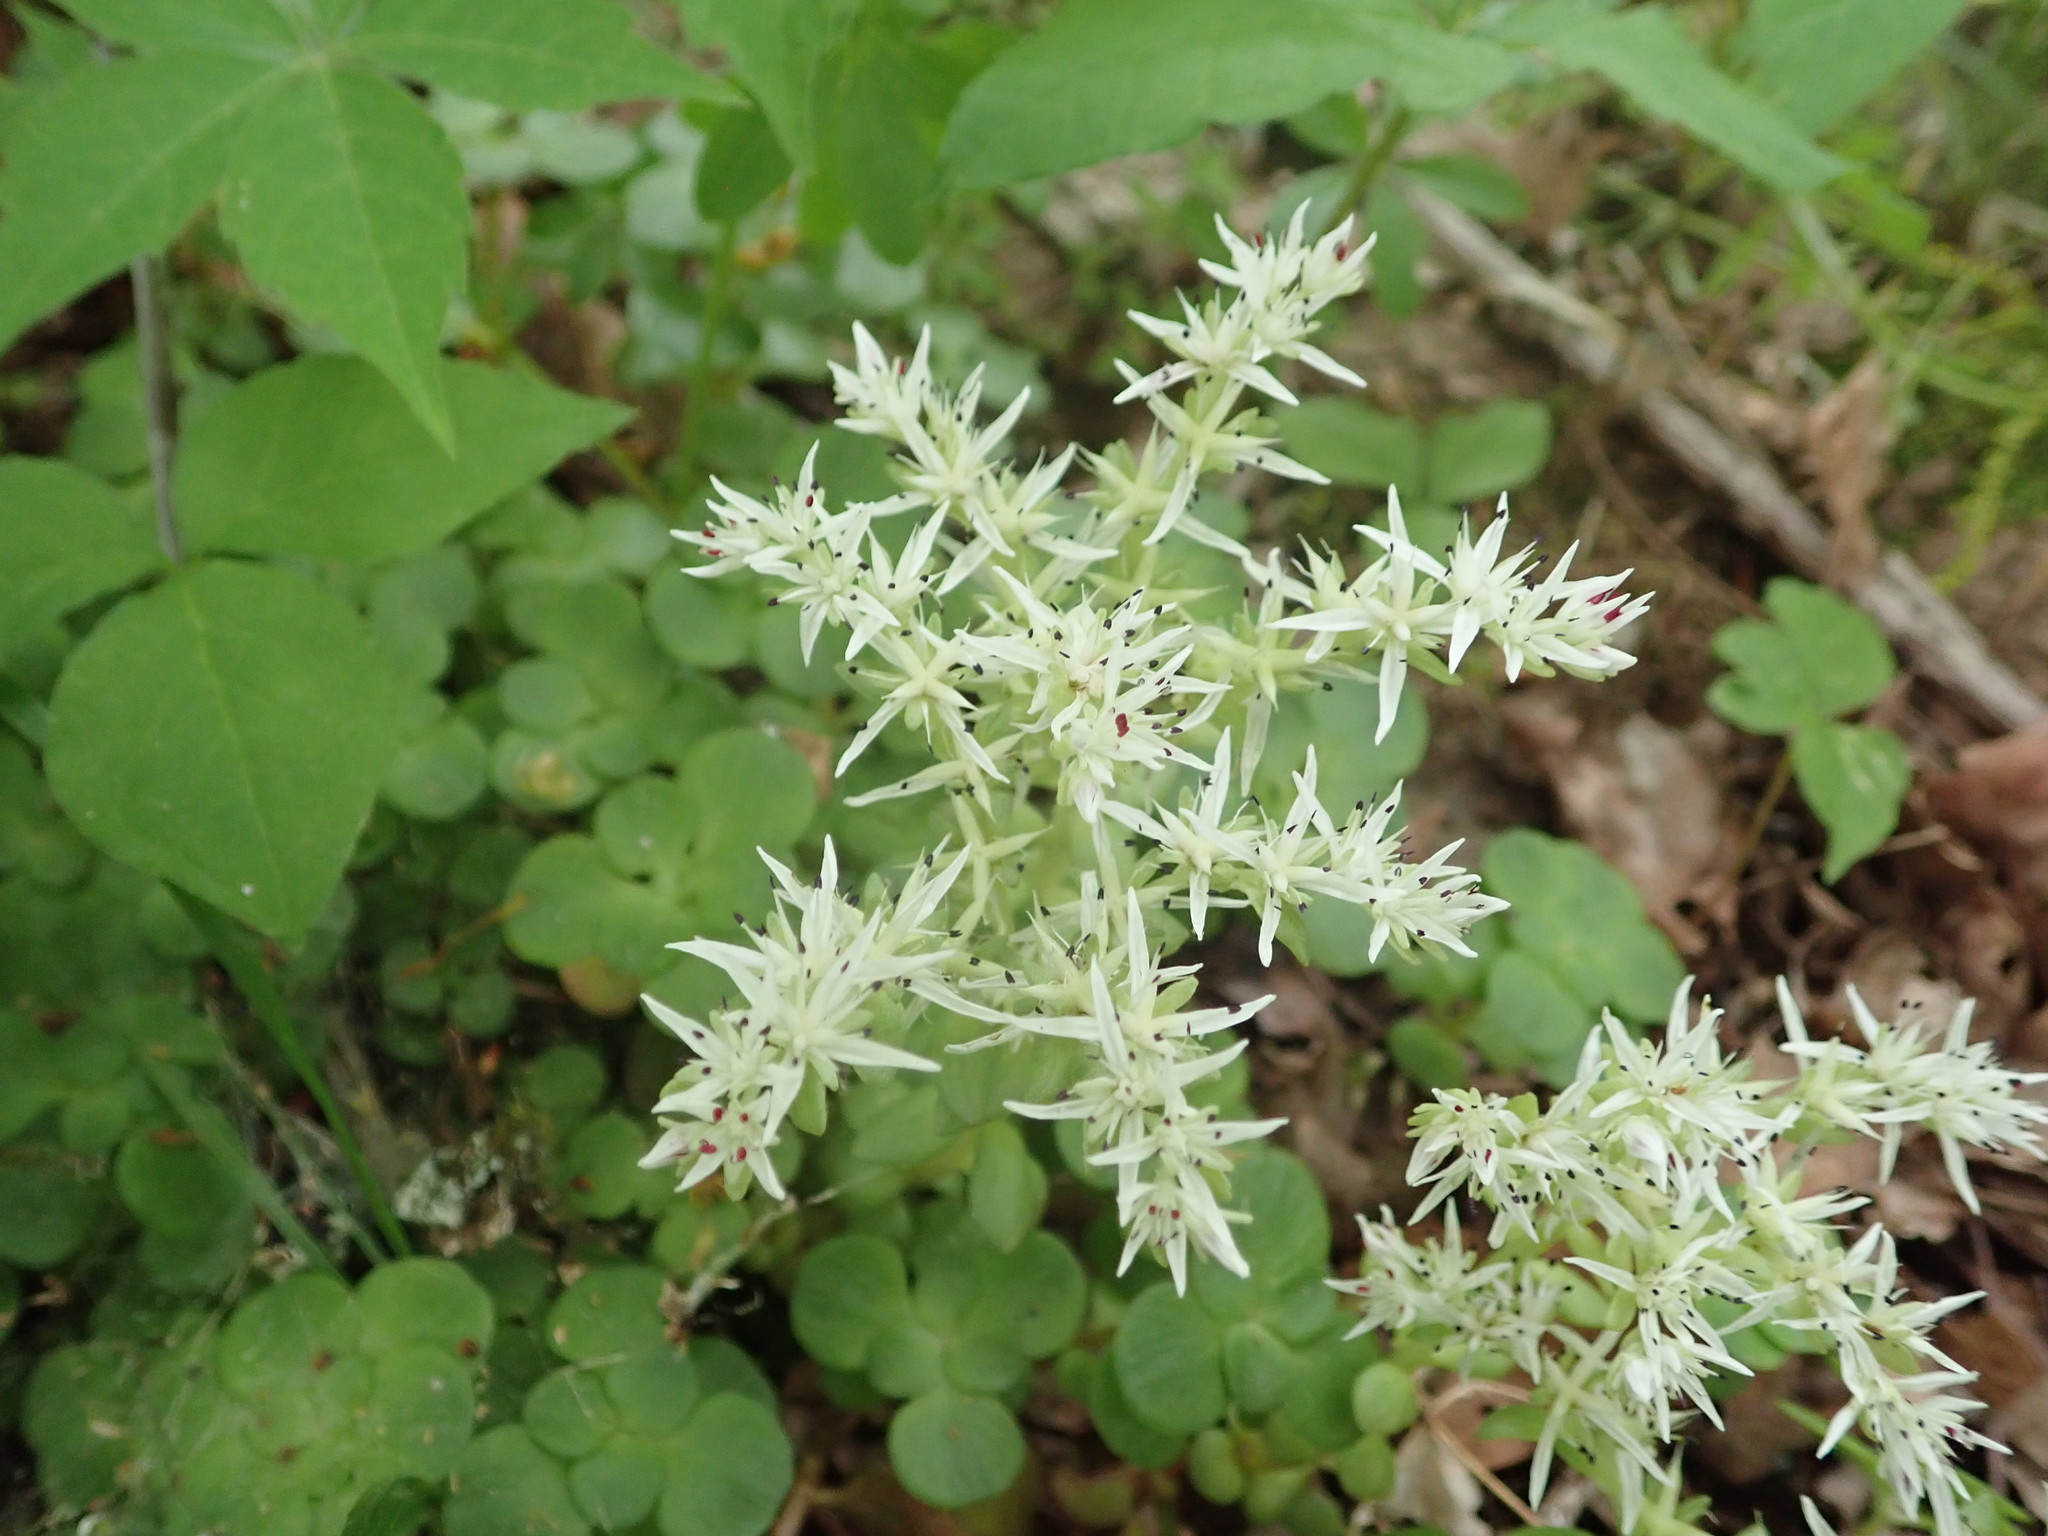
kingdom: Plantae
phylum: Tracheophyta
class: Magnoliopsida
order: Saxifragales
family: Crassulaceae
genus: Sedum
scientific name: Sedum ternatum
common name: Wild stonecrop
